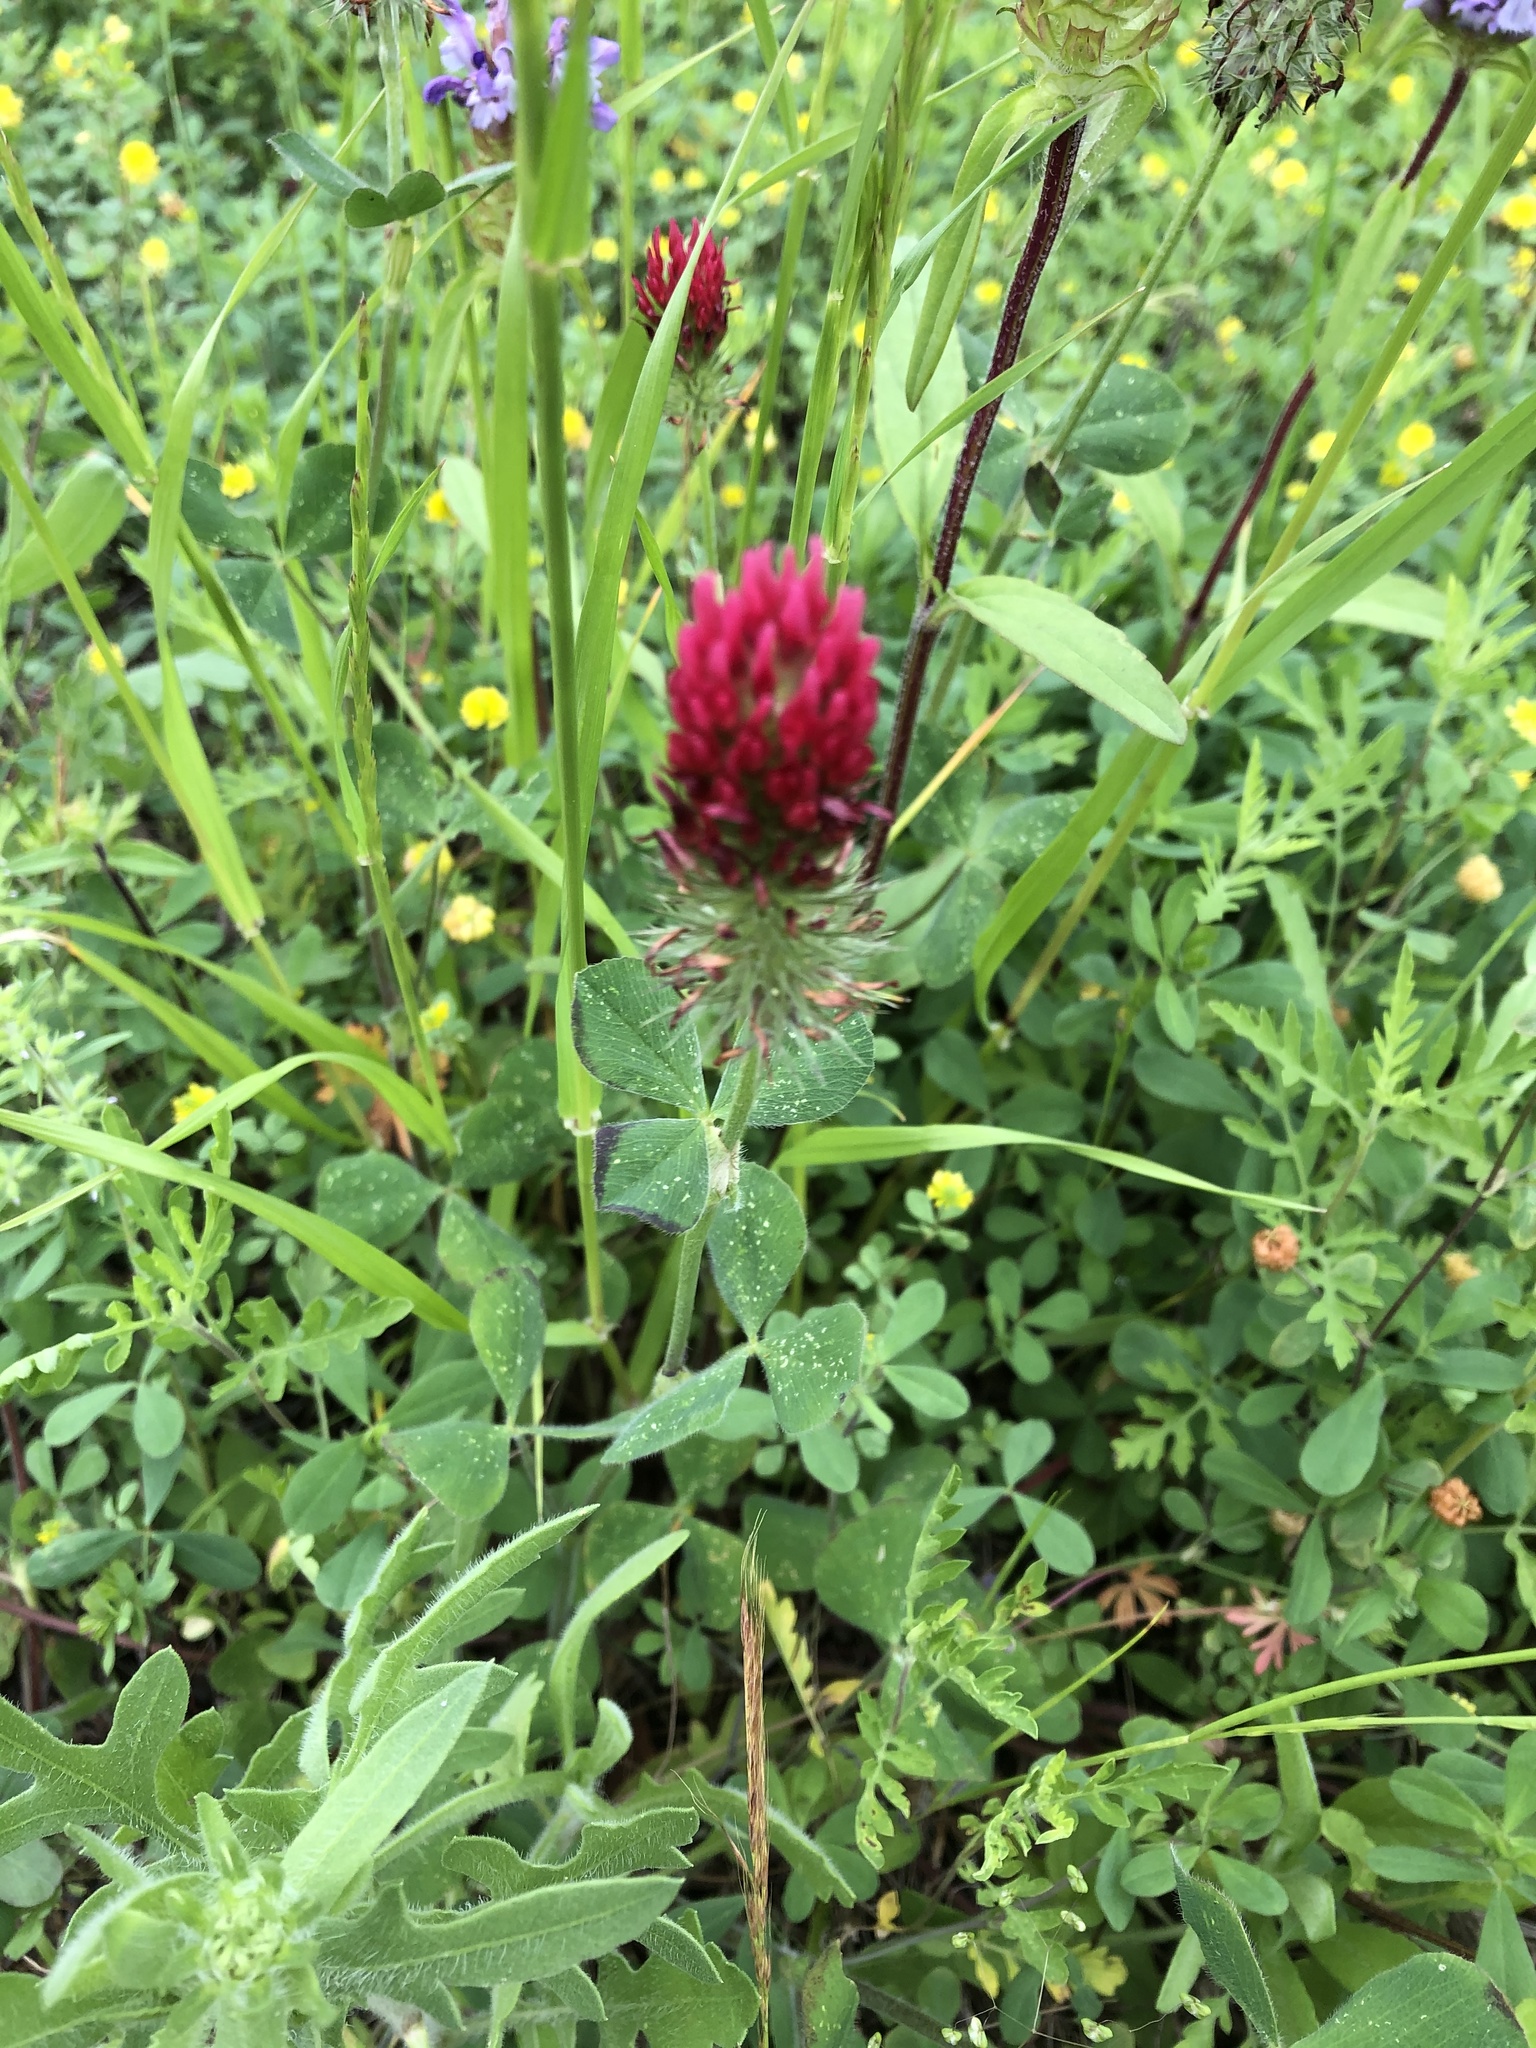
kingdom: Plantae
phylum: Tracheophyta
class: Magnoliopsida
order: Fabales
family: Fabaceae
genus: Trifolium
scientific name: Trifolium incarnatum
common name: Crimson clover
